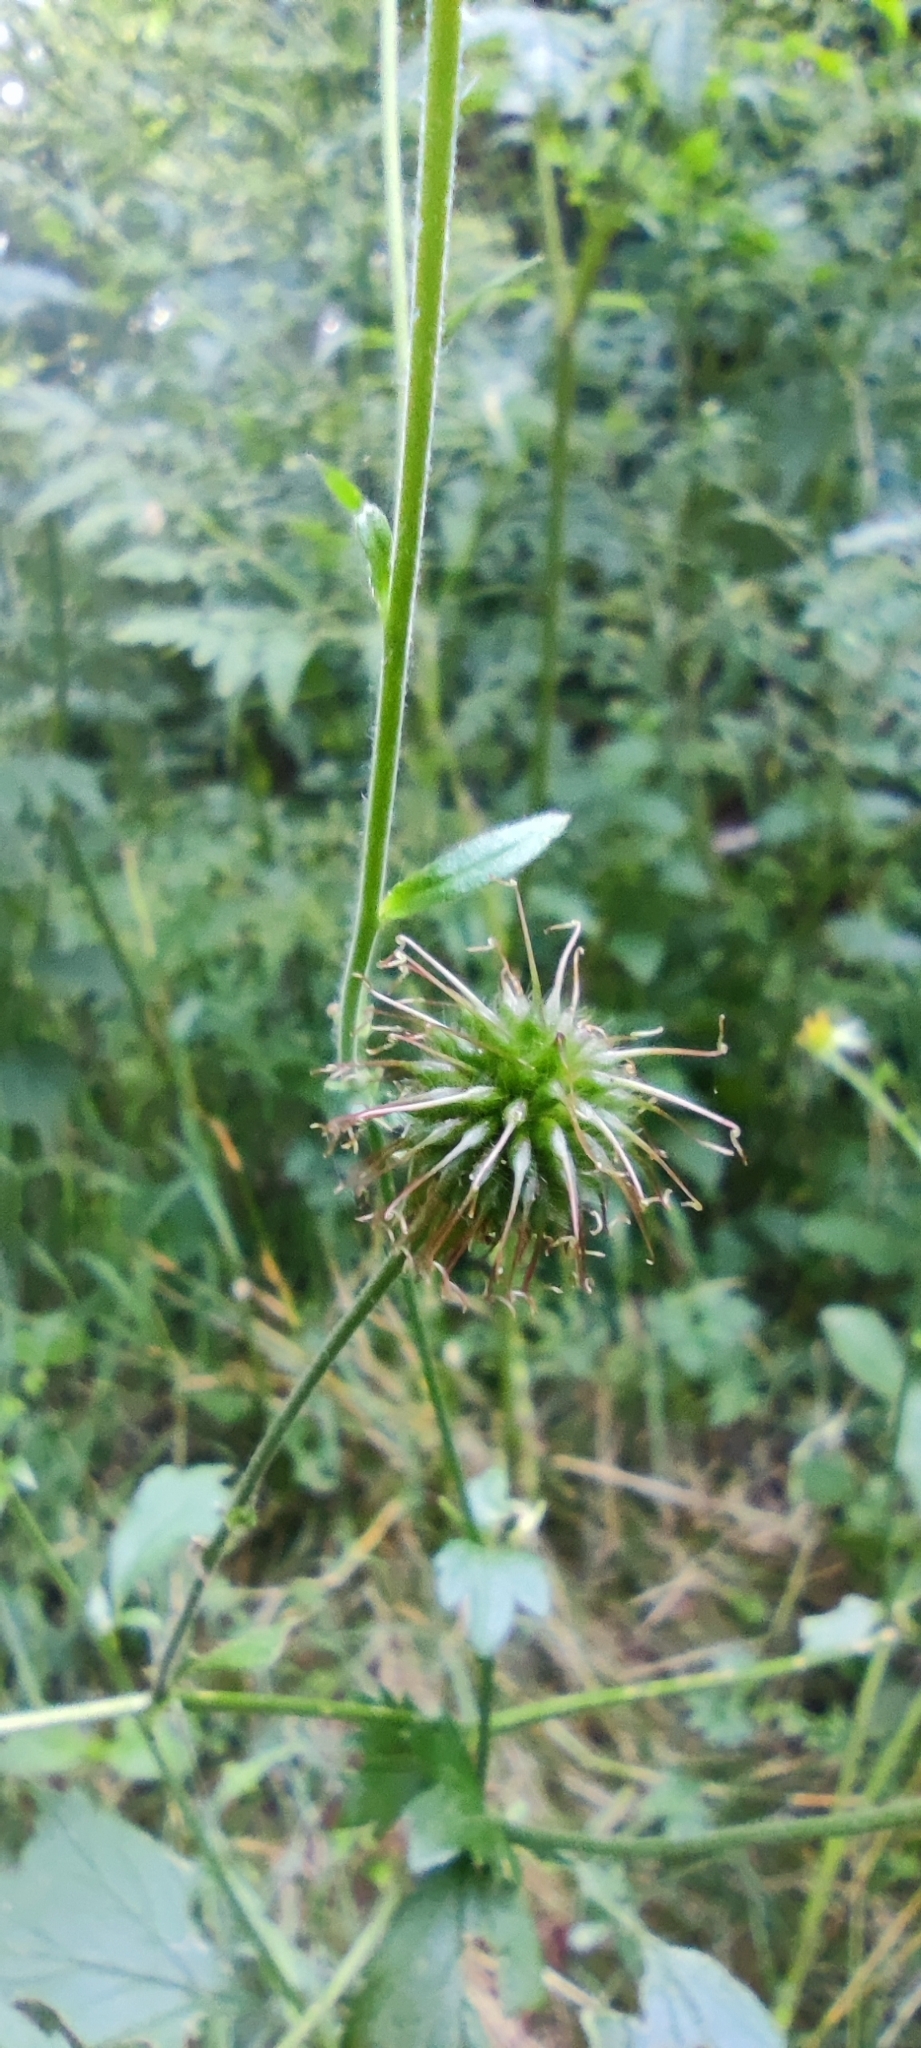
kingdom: Plantae
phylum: Tracheophyta
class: Magnoliopsida
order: Rosales
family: Rosaceae
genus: Geum
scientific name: Geum urbanum
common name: Wood avens
